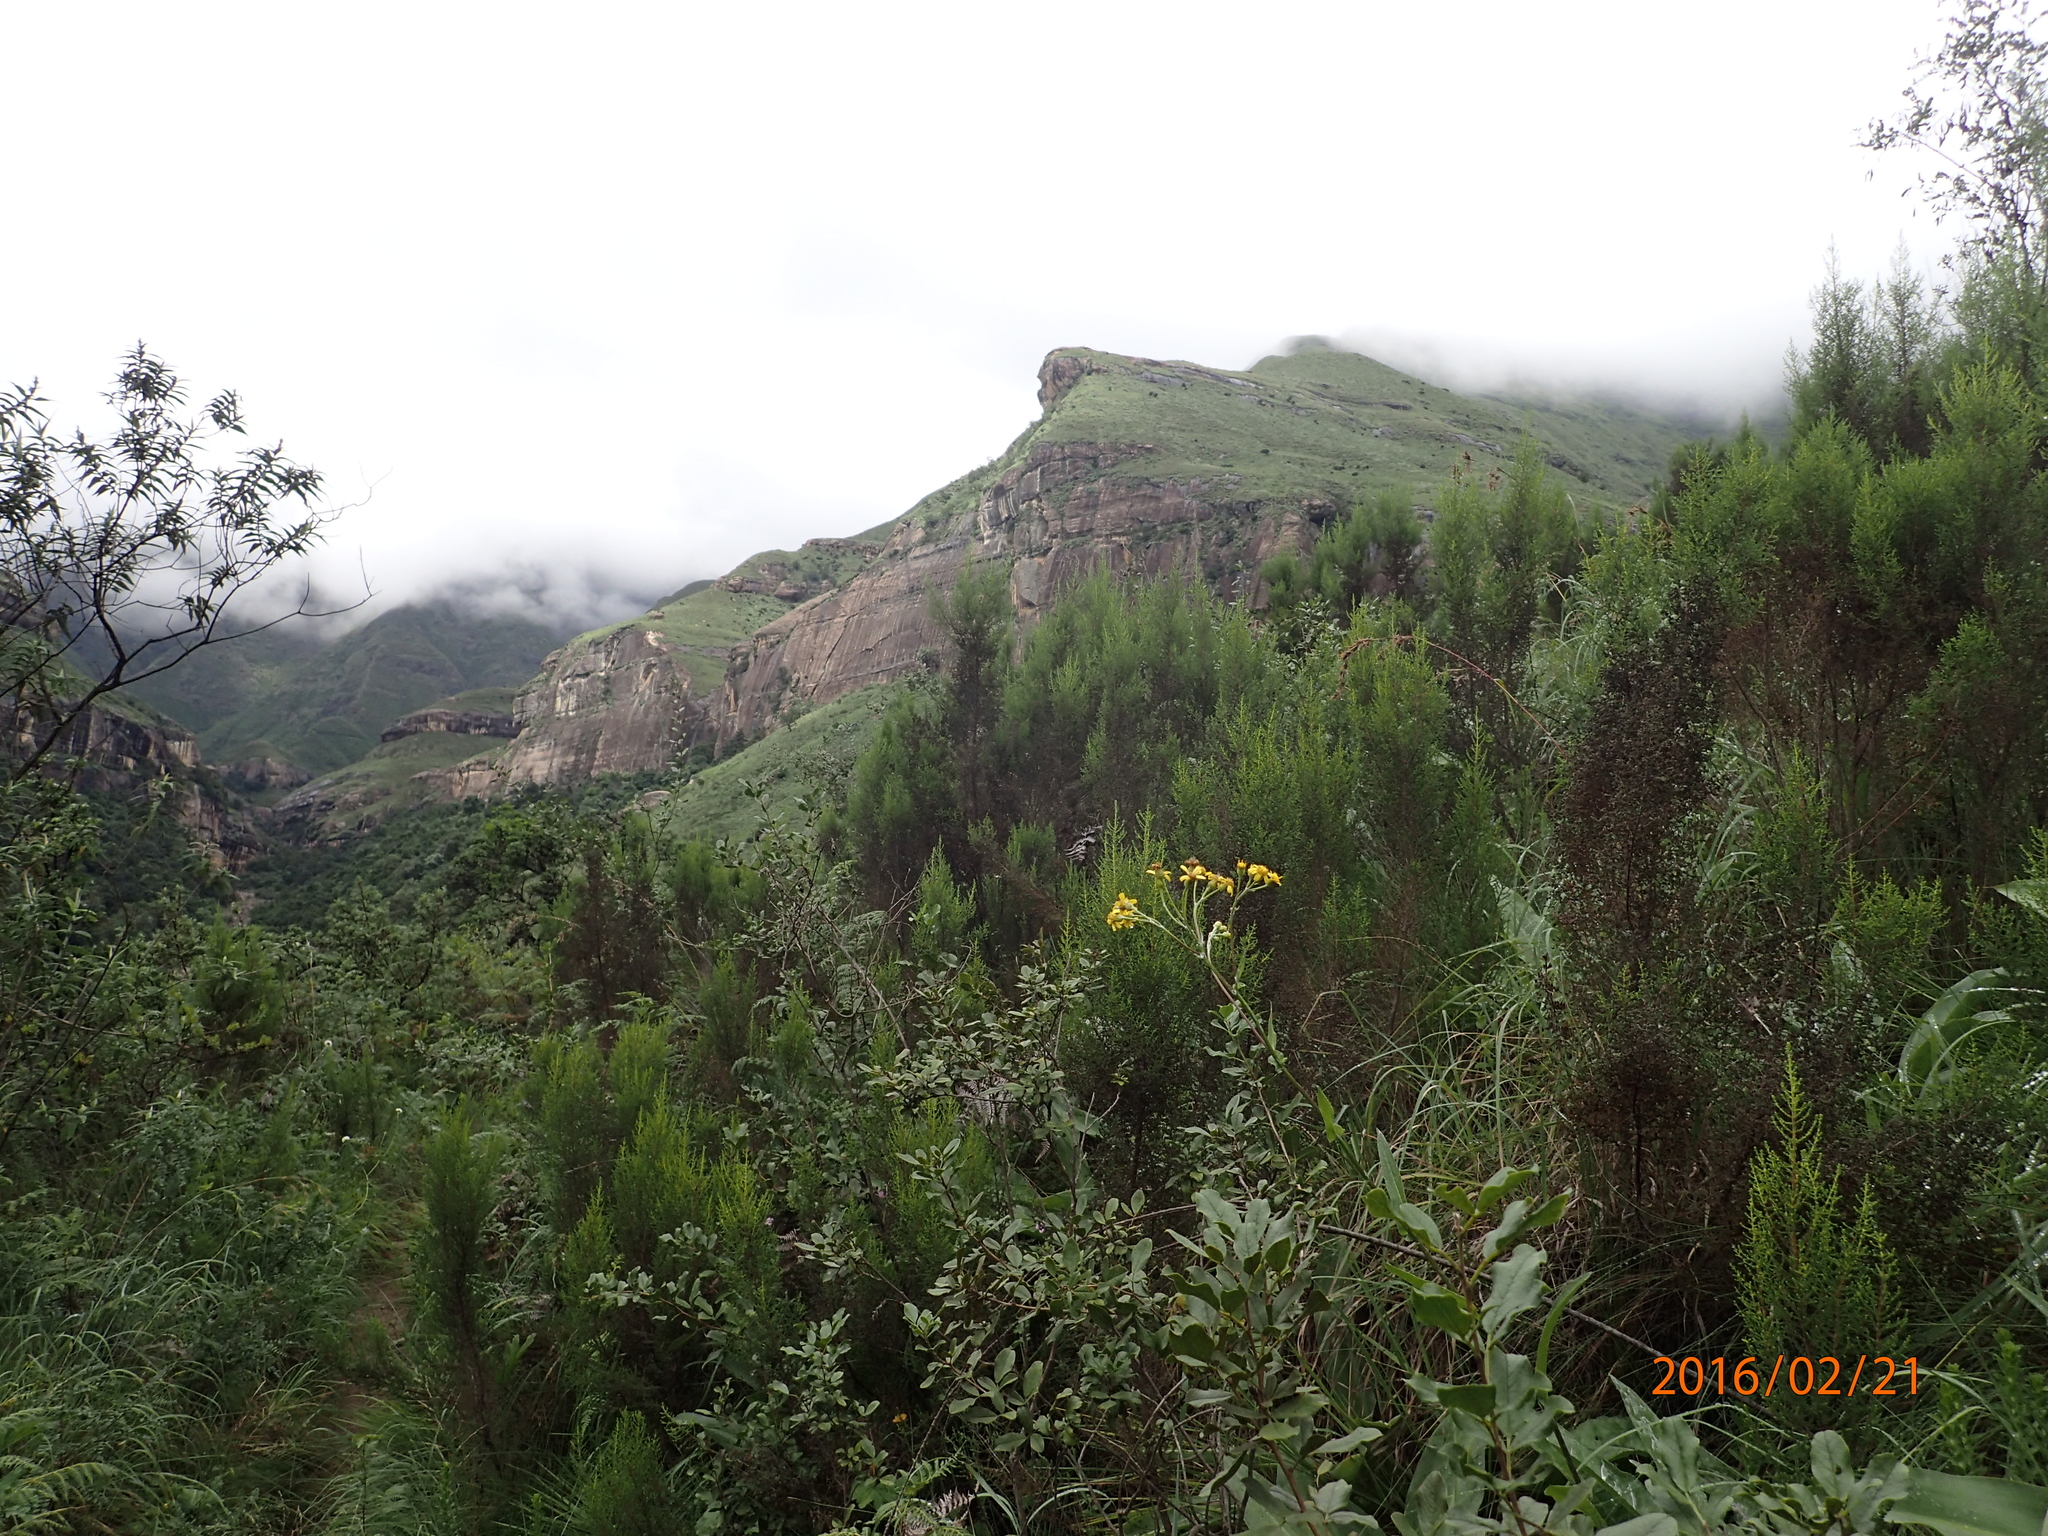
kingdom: Plantae
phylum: Tracheophyta
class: Magnoliopsida
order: Asterales
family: Asteraceae
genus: Senecio
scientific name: Senecio inornatus
